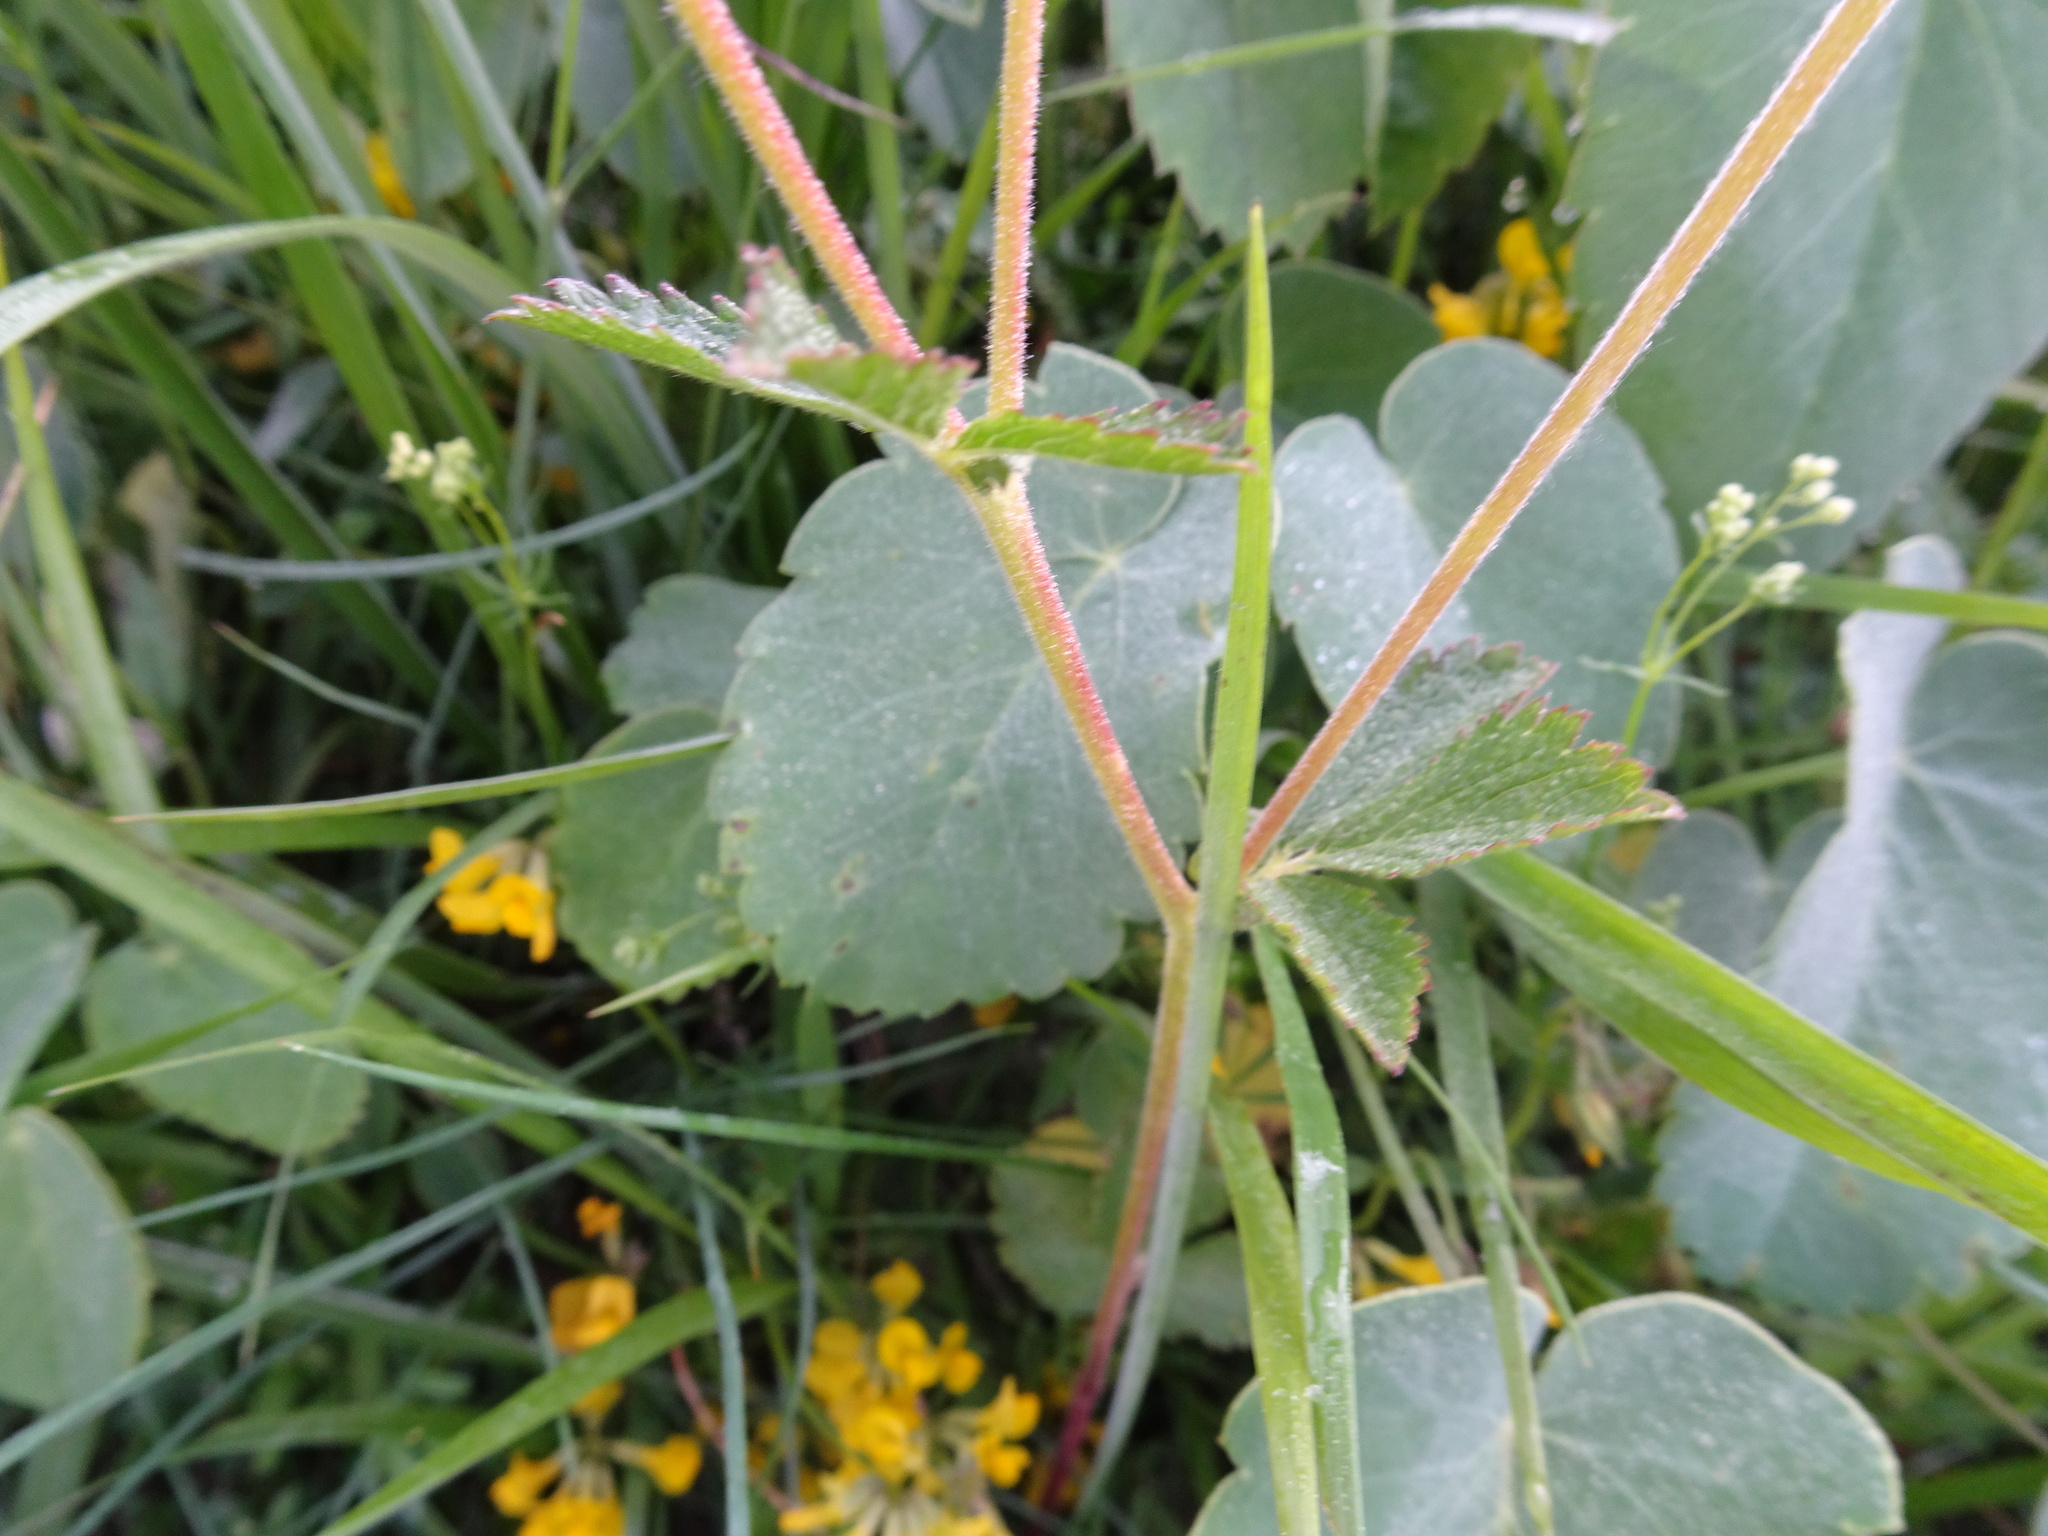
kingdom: Plantae
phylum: Tracheophyta
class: Magnoliopsida
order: Rosales
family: Rosaceae
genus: Drymocallis
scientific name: Drymocallis rupestris
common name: Rock cinquefoil
